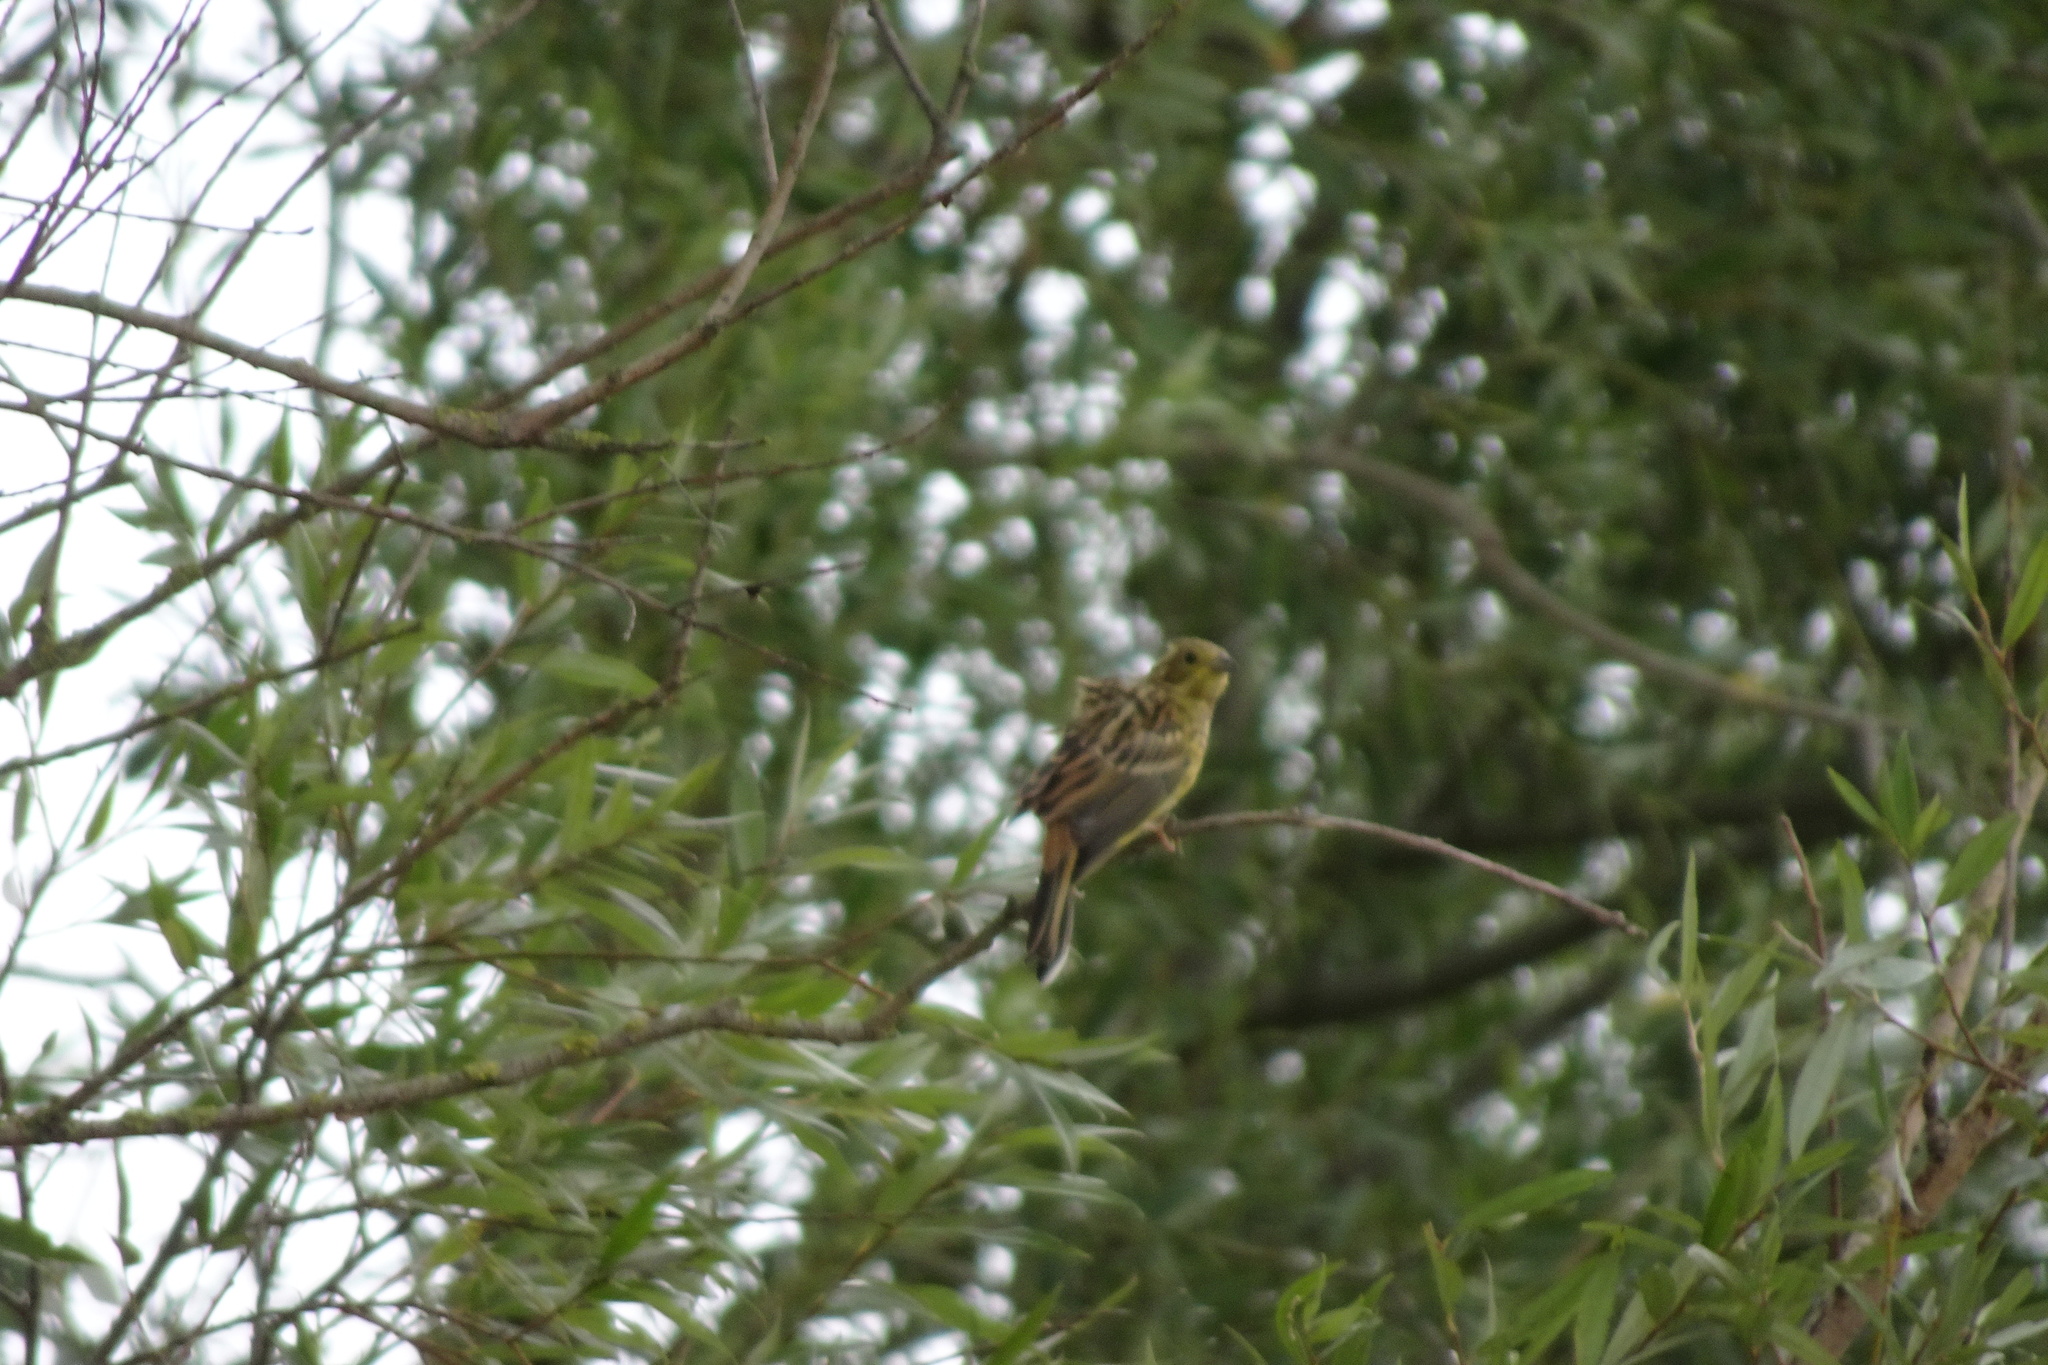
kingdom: Animalia
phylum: Chordata
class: Aves
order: Passeriformes
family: Emberizidae
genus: Emberiza
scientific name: Emberiza citrinella
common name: Yellowhammer
